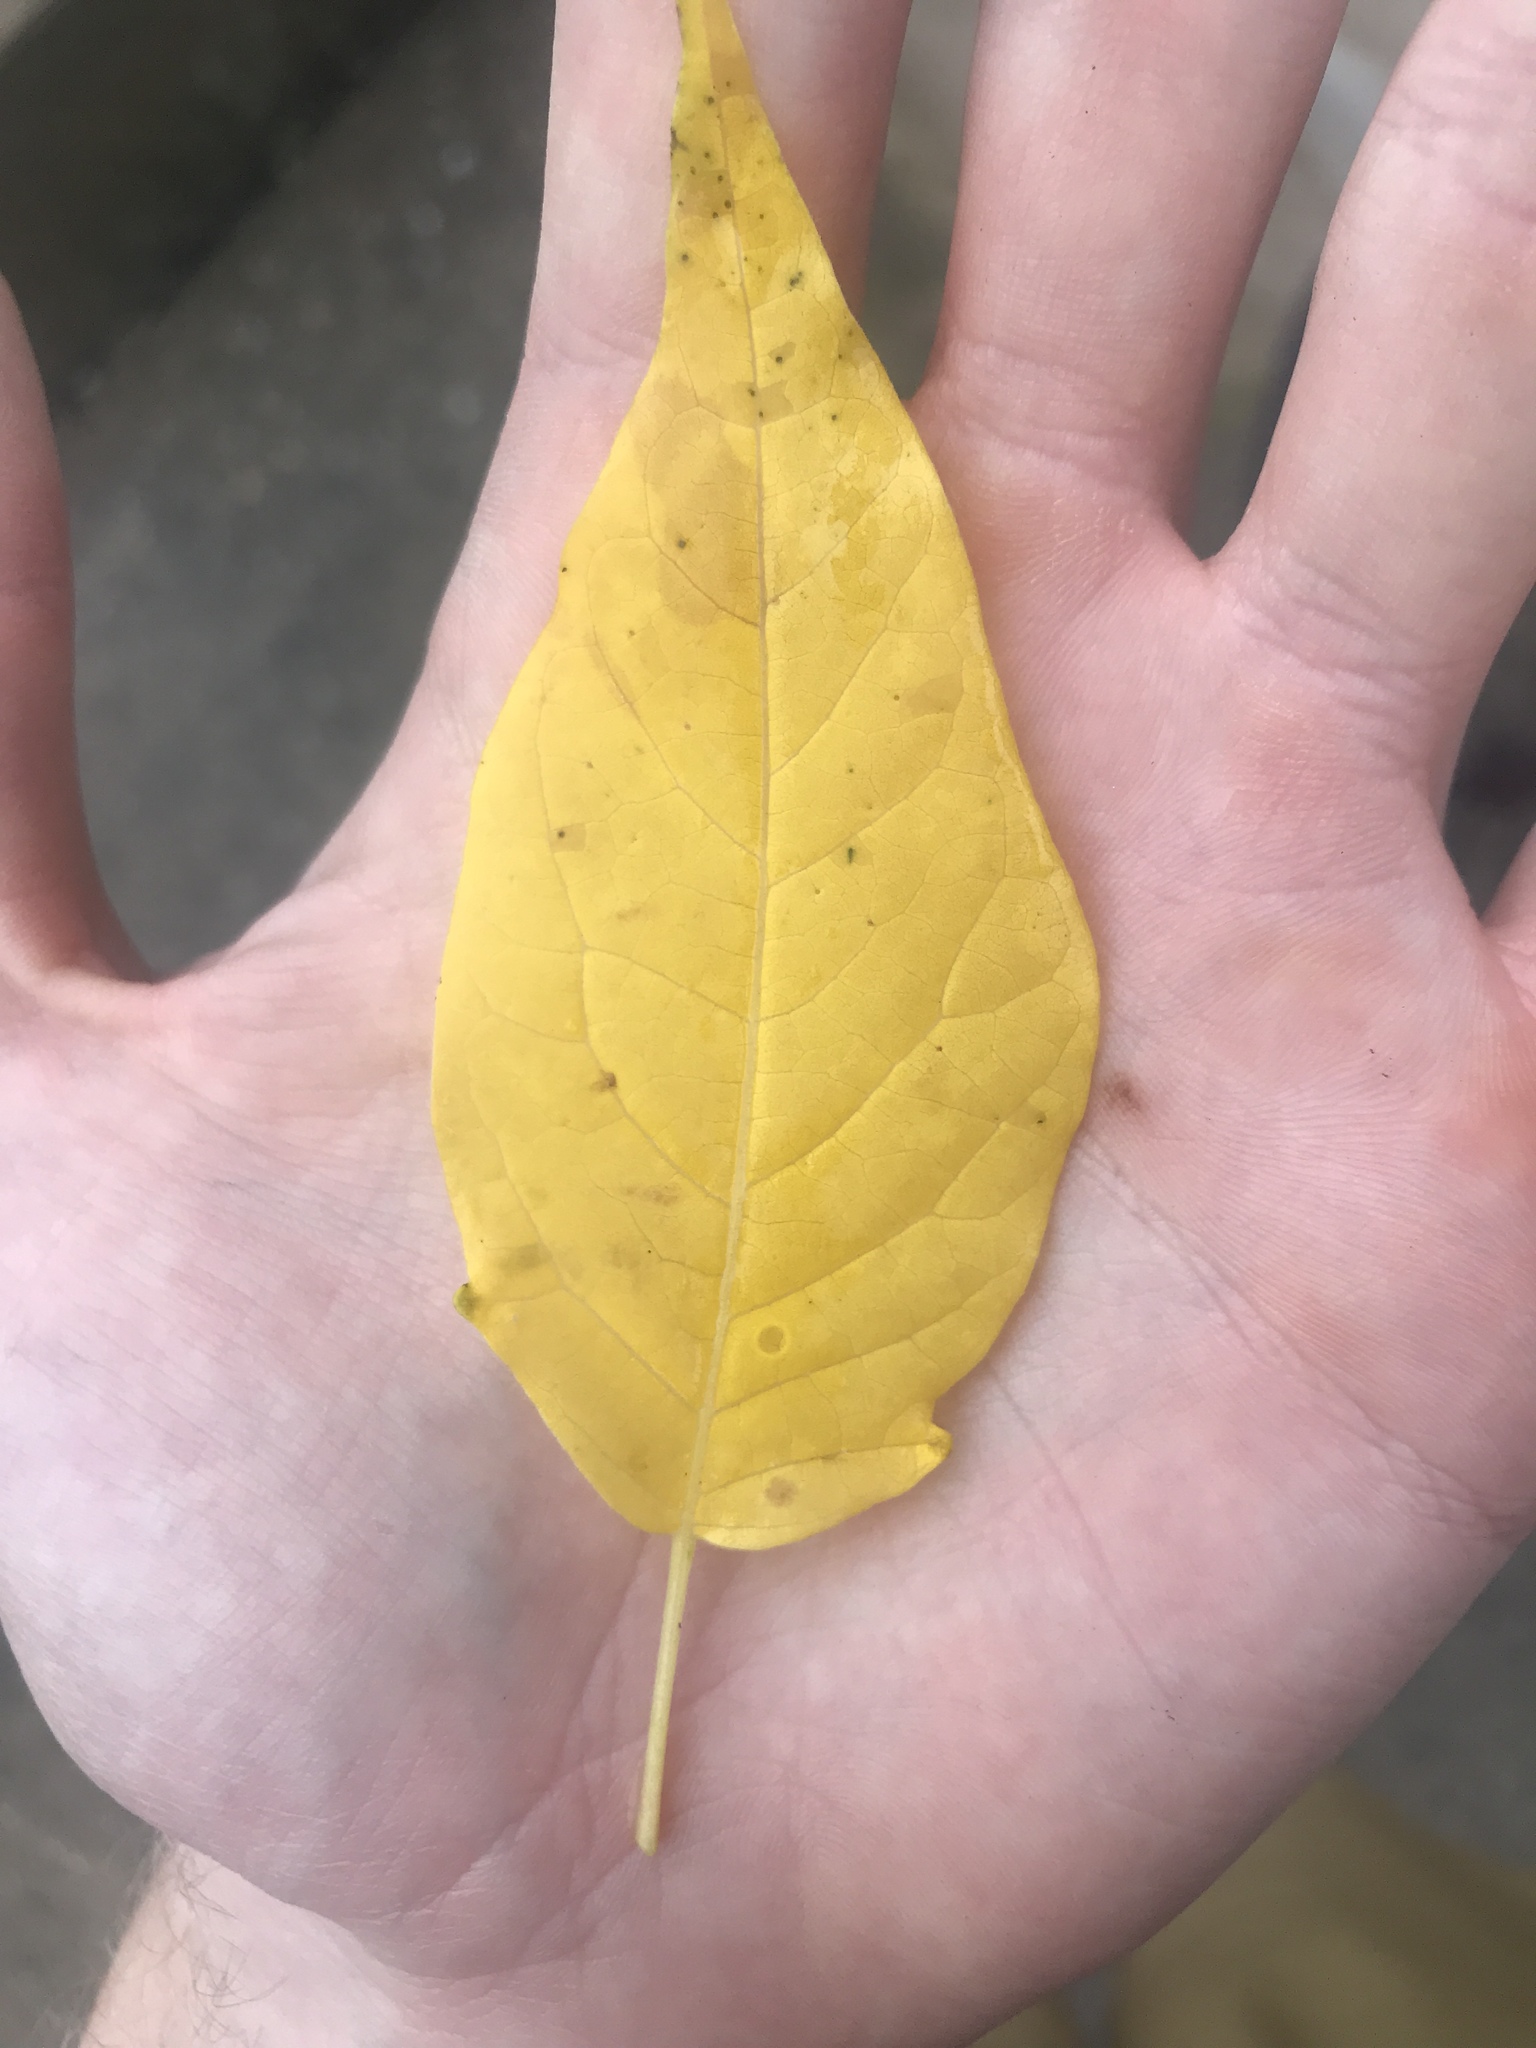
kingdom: Plantae
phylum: Tracheophyta
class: Magnoliopsida
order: Sapindales
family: Simaroubaceae
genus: Ailanthus
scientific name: Ailanthus altissima
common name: Tree-of-heaven
